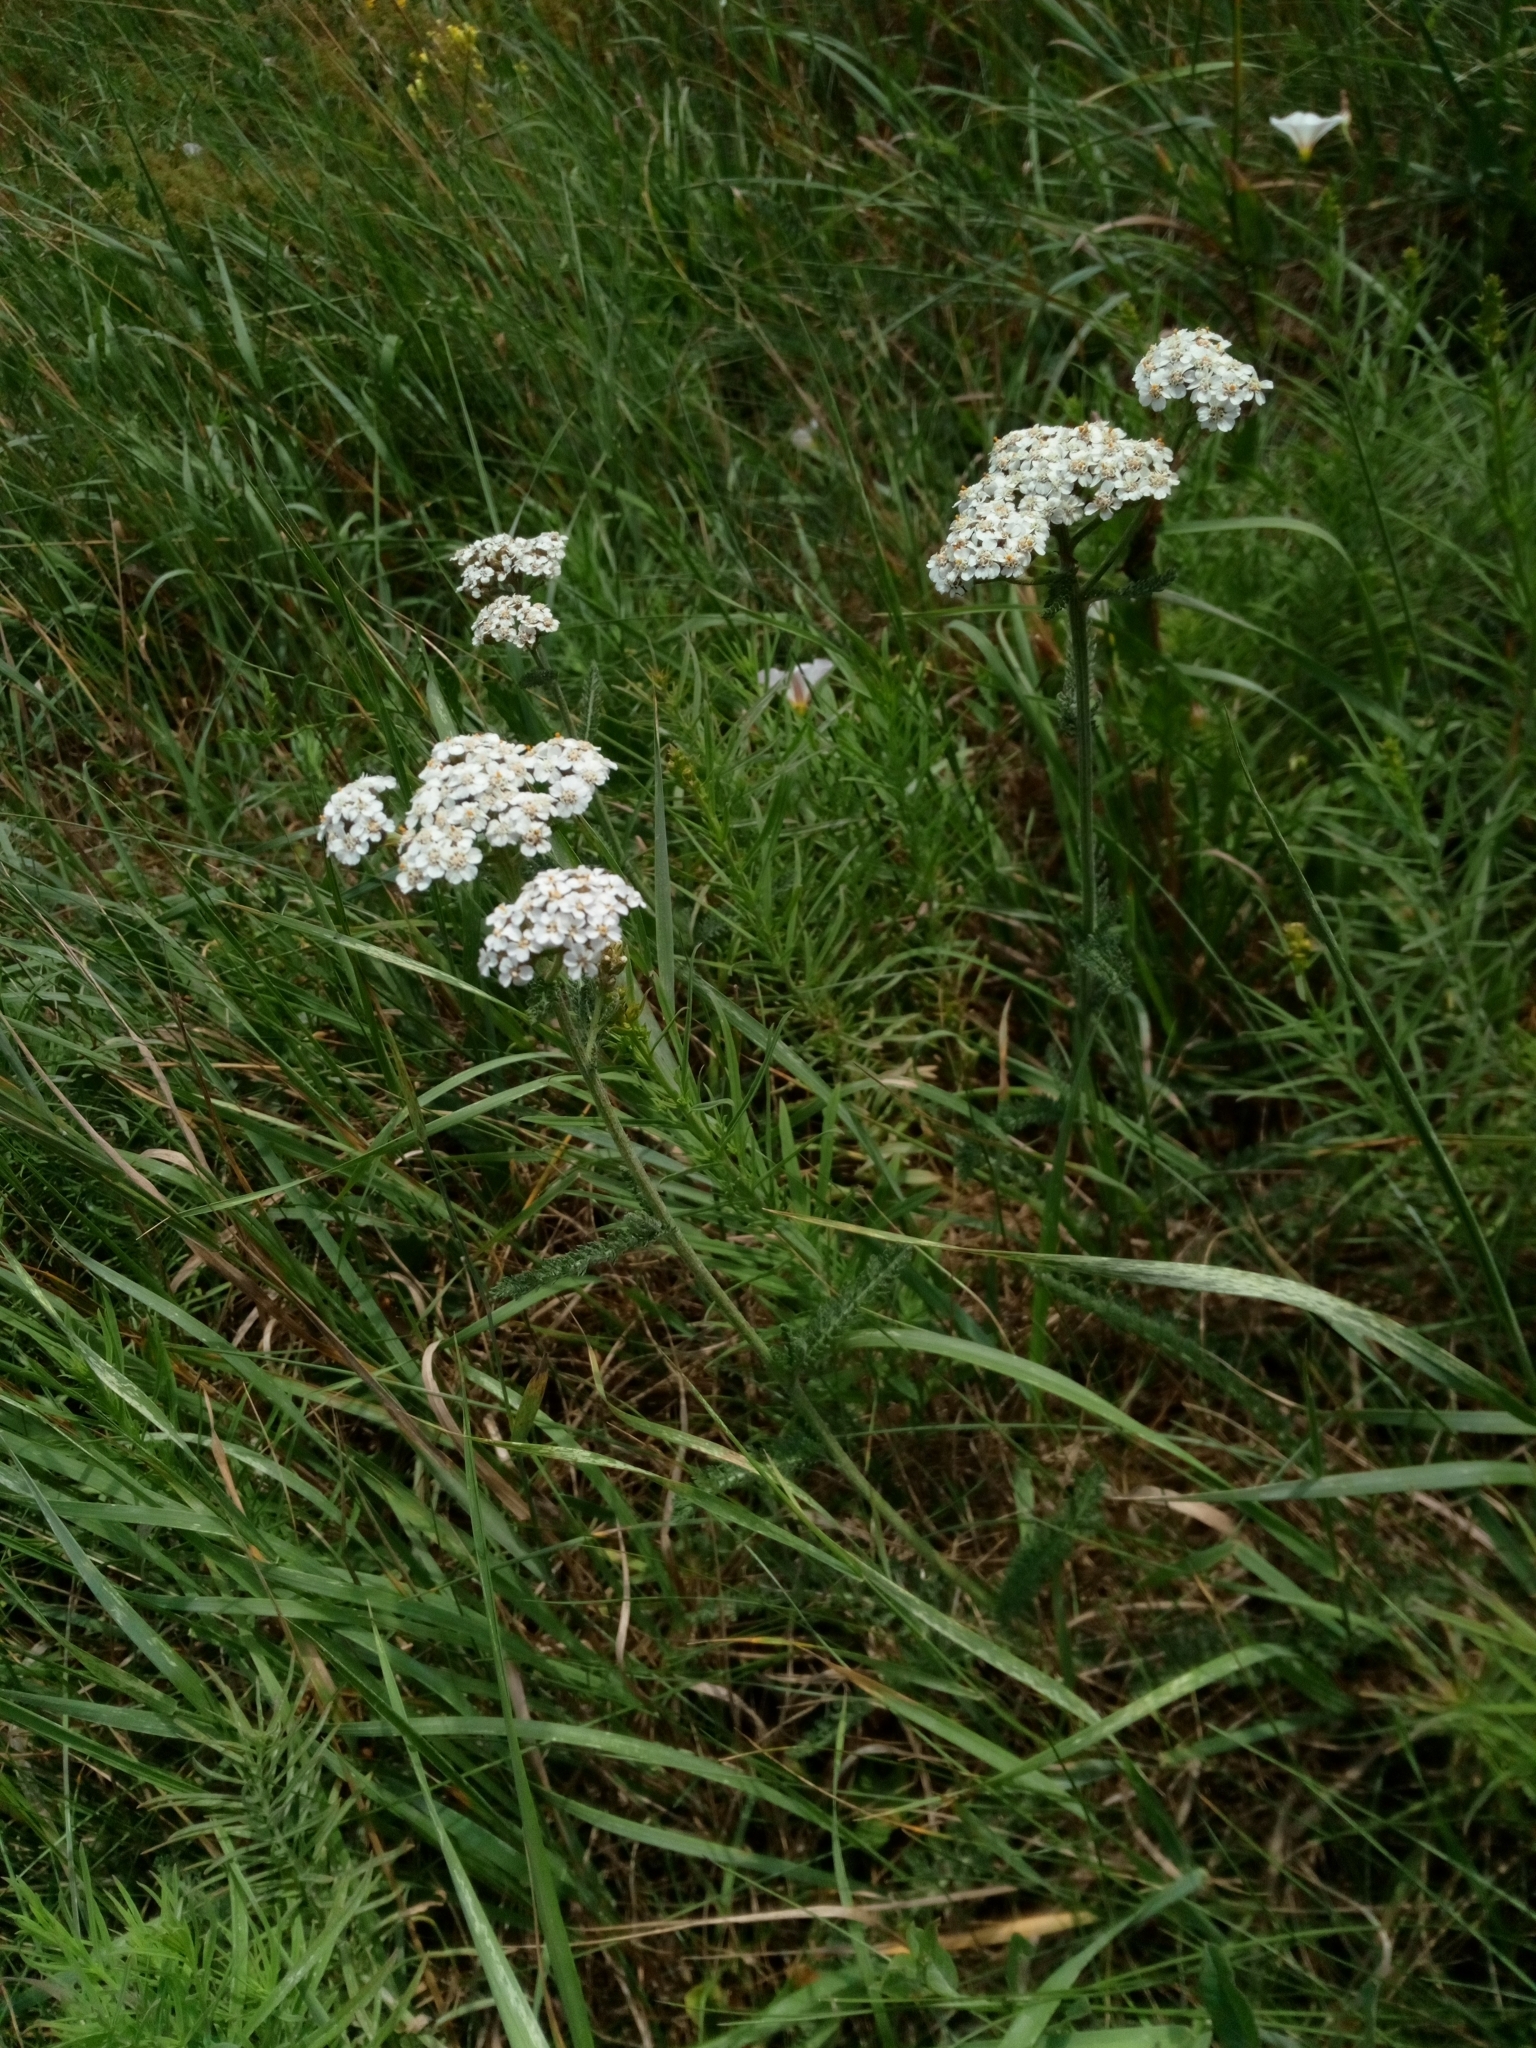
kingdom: Plantae
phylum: Tracheophyta
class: Magnoliopsida
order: Asterales
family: Asteraceae
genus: Achillea
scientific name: Achillea millefolium
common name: Yarrow
